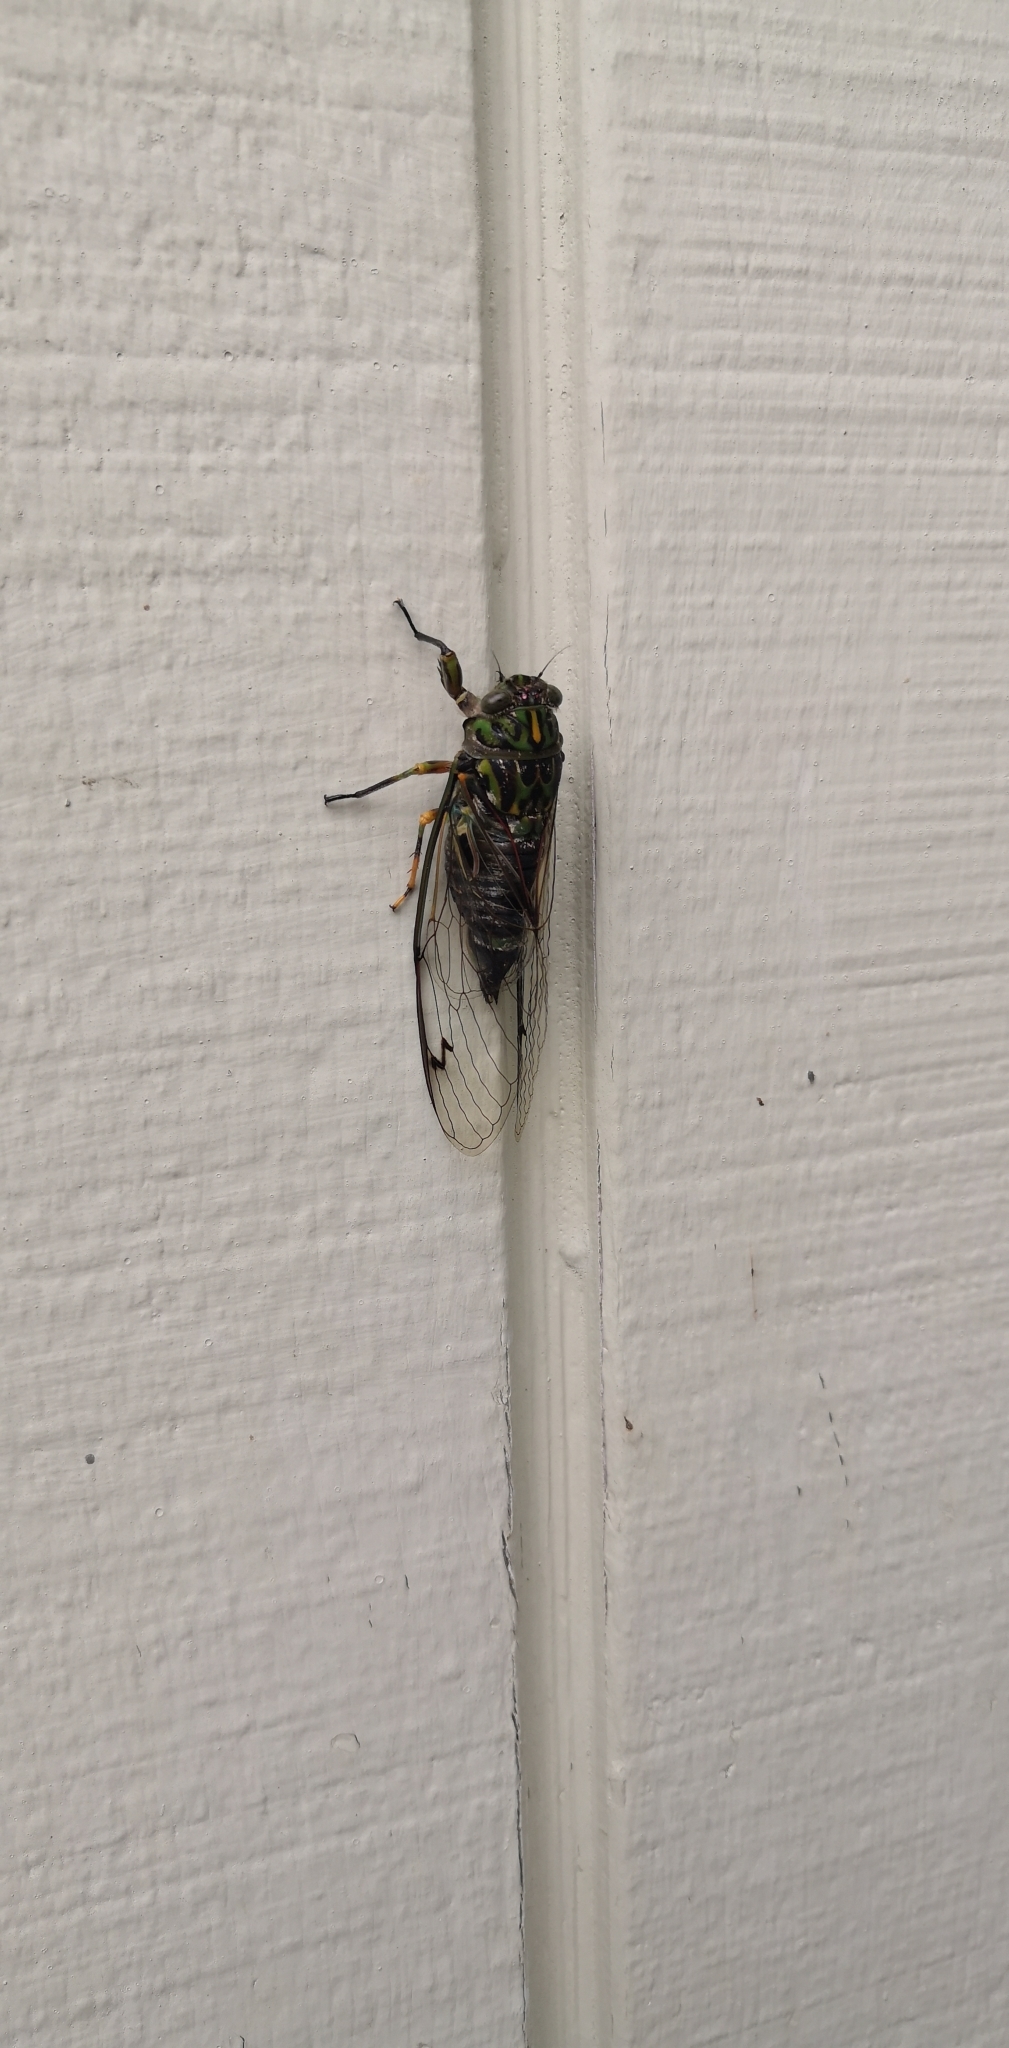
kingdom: Animalia
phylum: Arthropoda
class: Insecta
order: Hemiptera
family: Cicadidae
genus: Amphipsalta
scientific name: Amphipsalta zelandica
